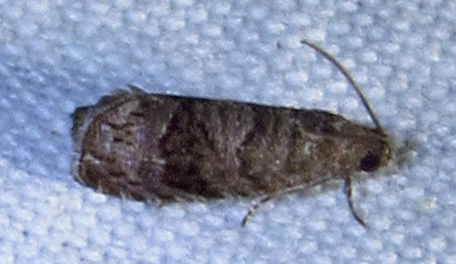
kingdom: Animalia
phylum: Arthropoda
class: Insecta
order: Lepidoptera
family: Noctuidae
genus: Aspila
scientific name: Aspila
